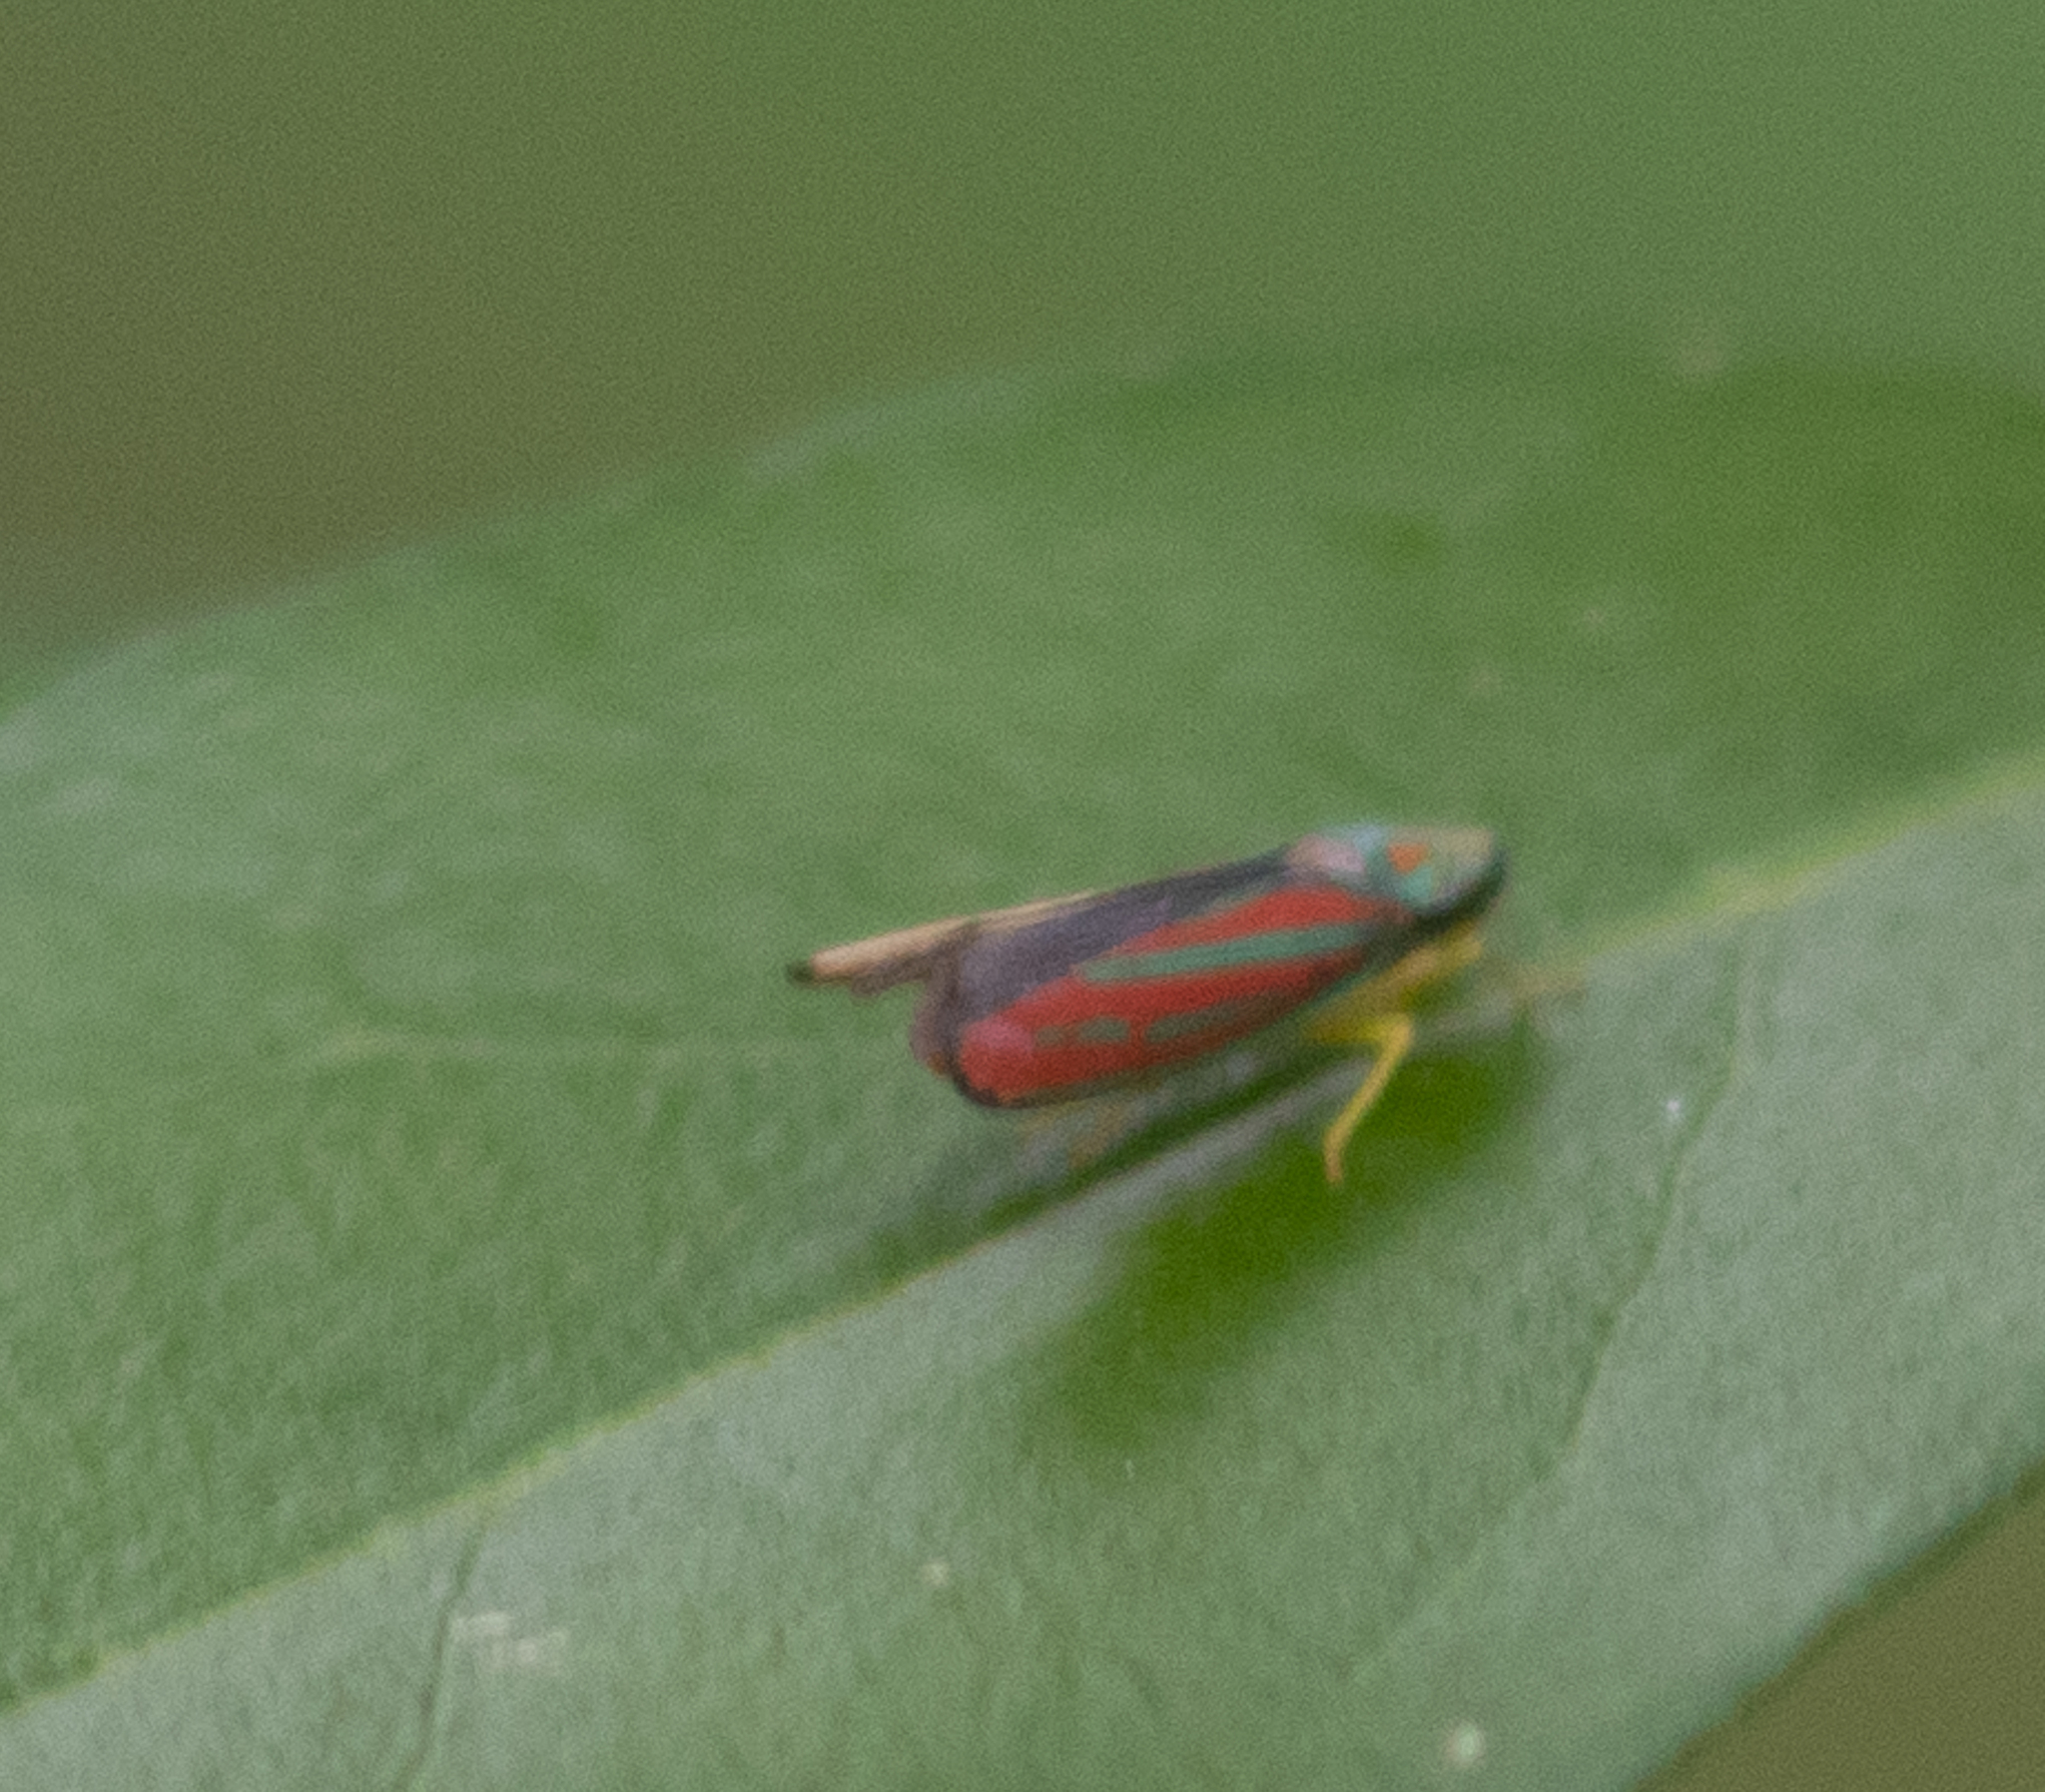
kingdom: Animalia
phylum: Arthropoda
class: Insecta
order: Hemiptera
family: Cicadellidae
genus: Graphocephala
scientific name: Graphocephala coccinea
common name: Candy-striped leafhopper
